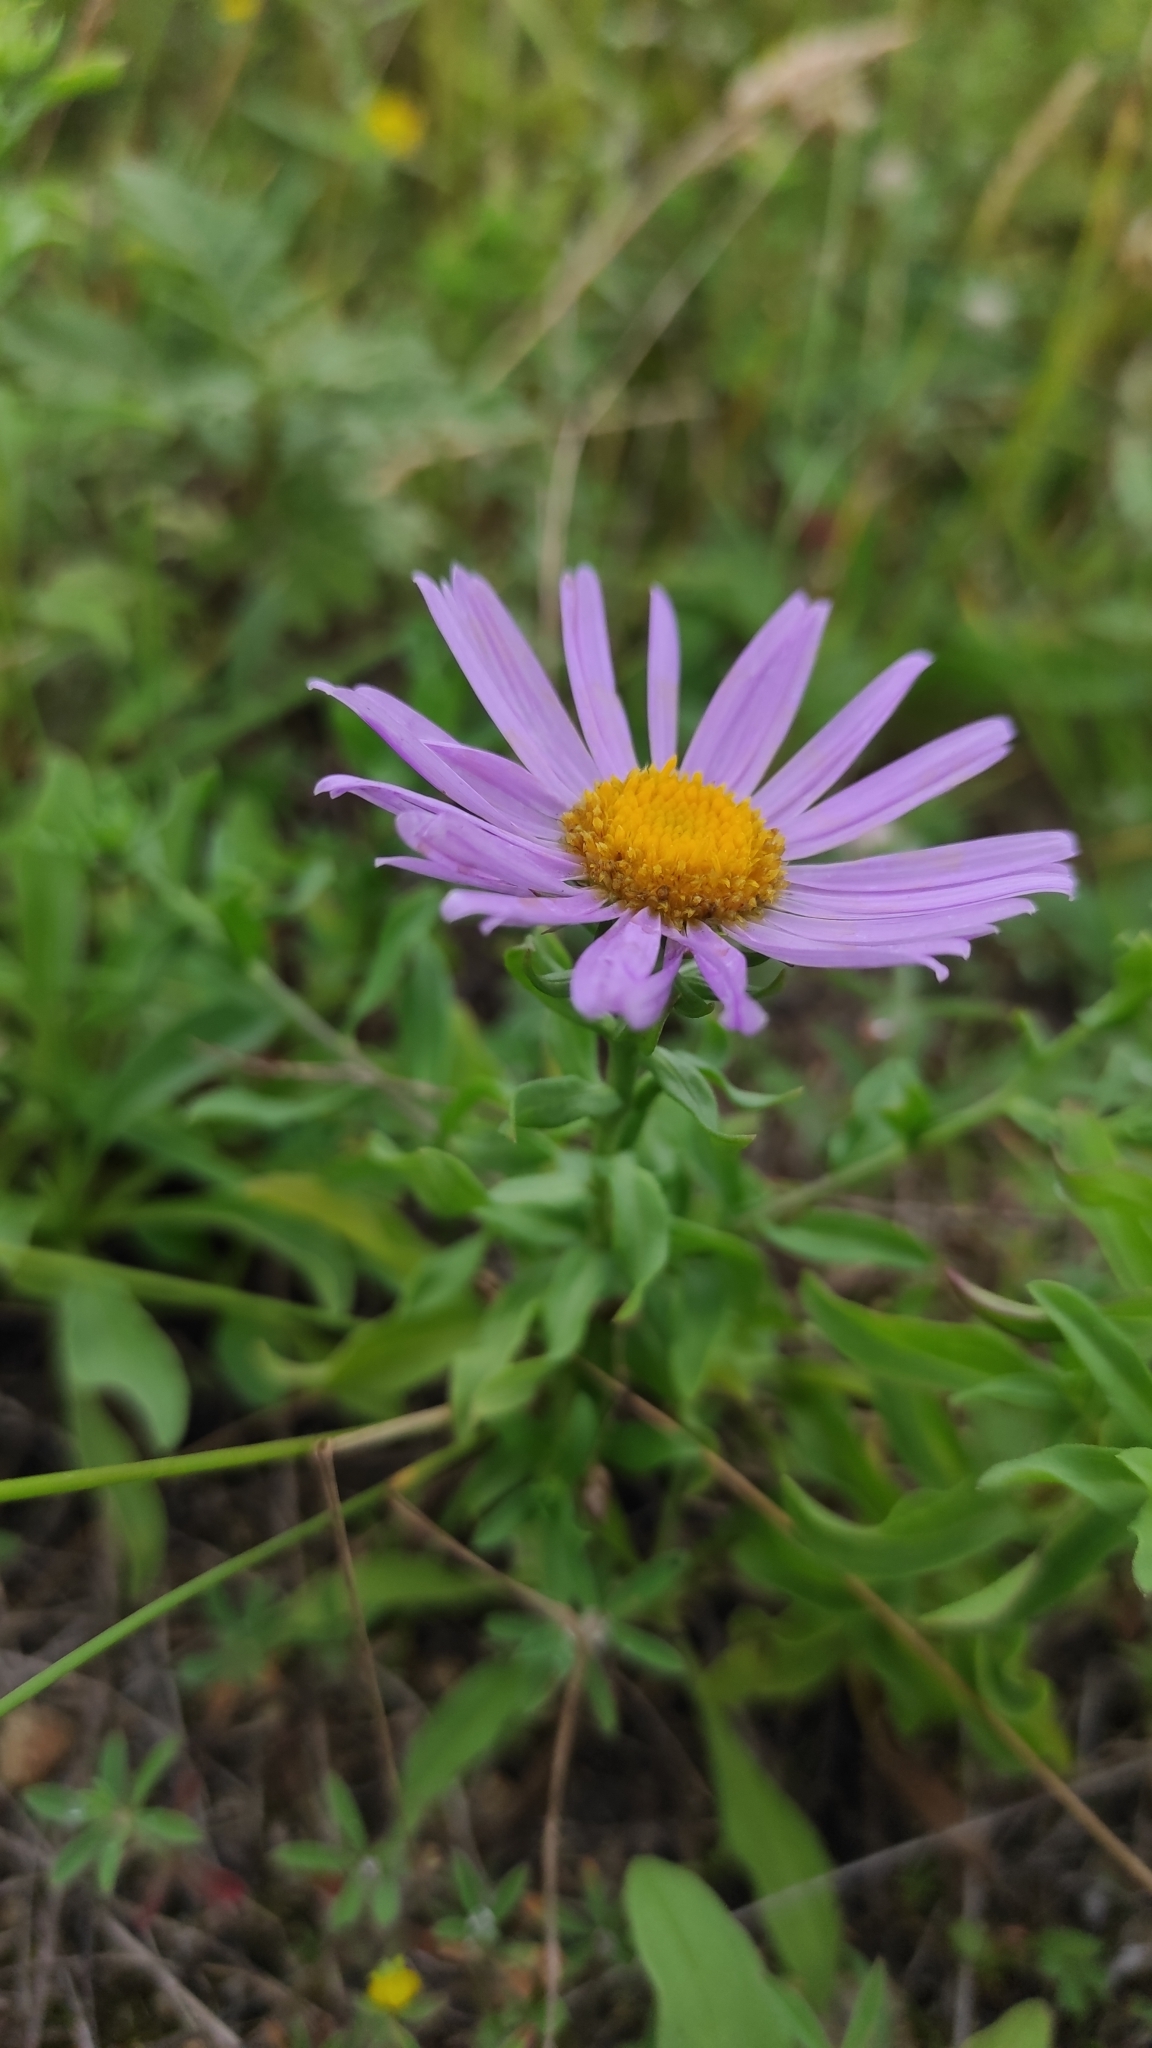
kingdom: Plantae
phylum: Tracheophyta
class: Magnoliopsida
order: Asterales
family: Asteraceae
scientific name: Asteraceae
